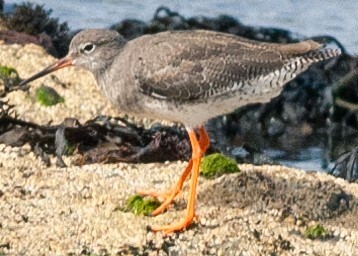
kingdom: Animalia
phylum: Chordata
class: Aves
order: Charadriiformes
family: Scolopacidae
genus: Tringa
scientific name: Tringa totanus
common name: Common redshank
